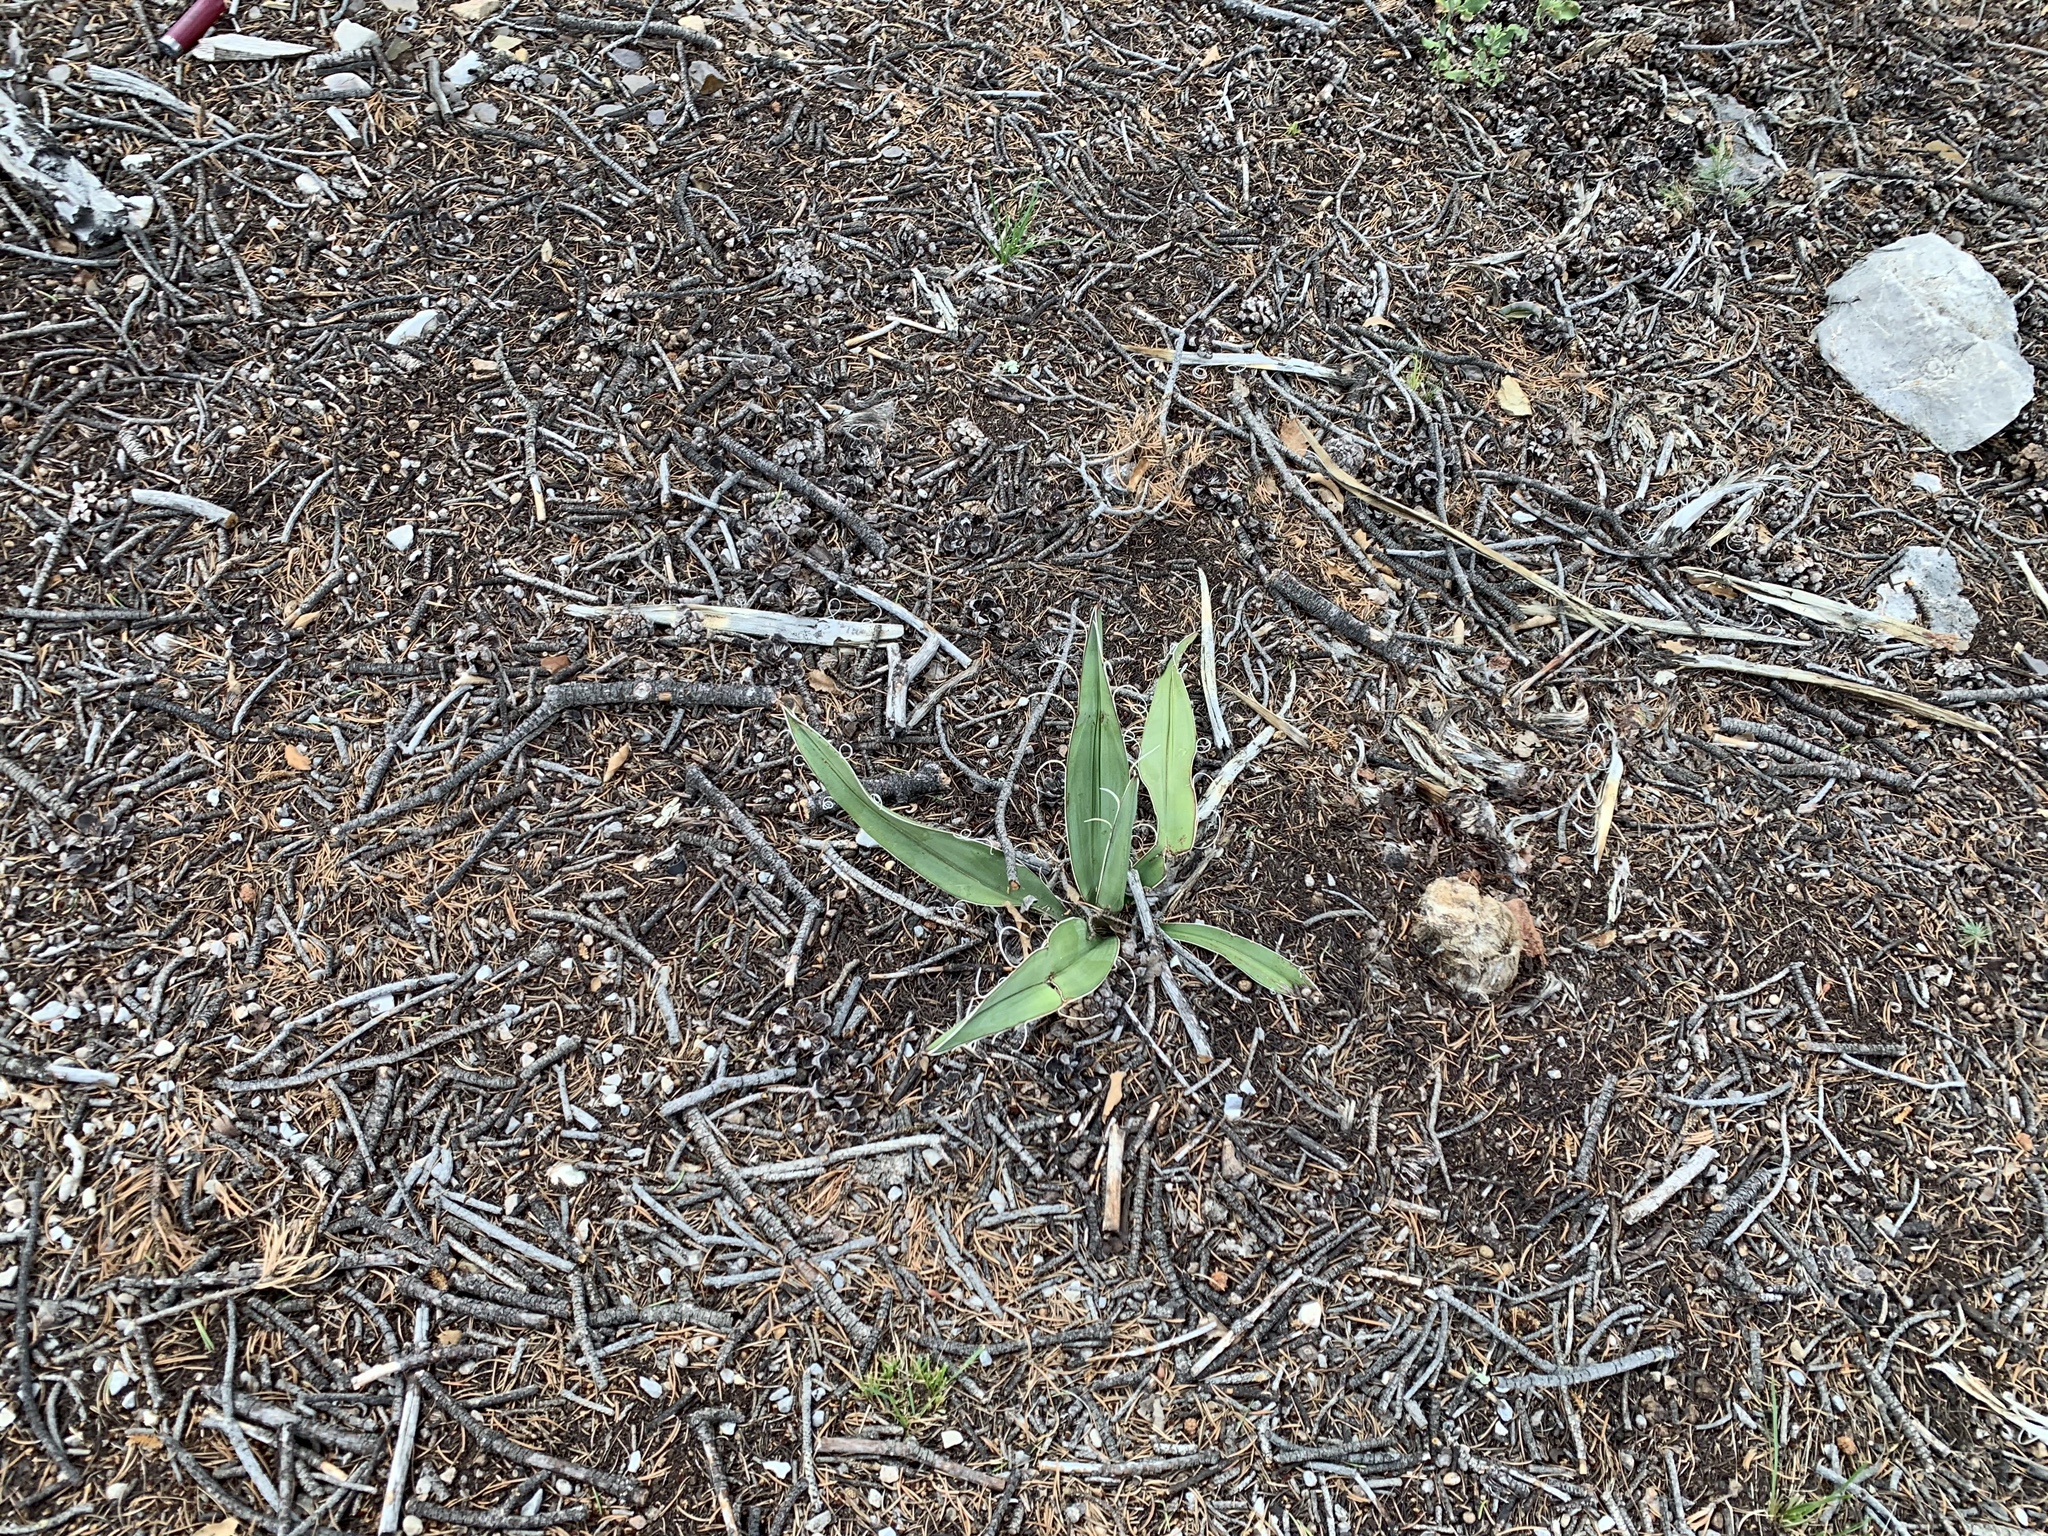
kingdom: Plantae
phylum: Tracheophyta
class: Liliopsida
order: Asparagales
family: Asparagaceae
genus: Yucca
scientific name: Yucca baccata
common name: Banana yucca
